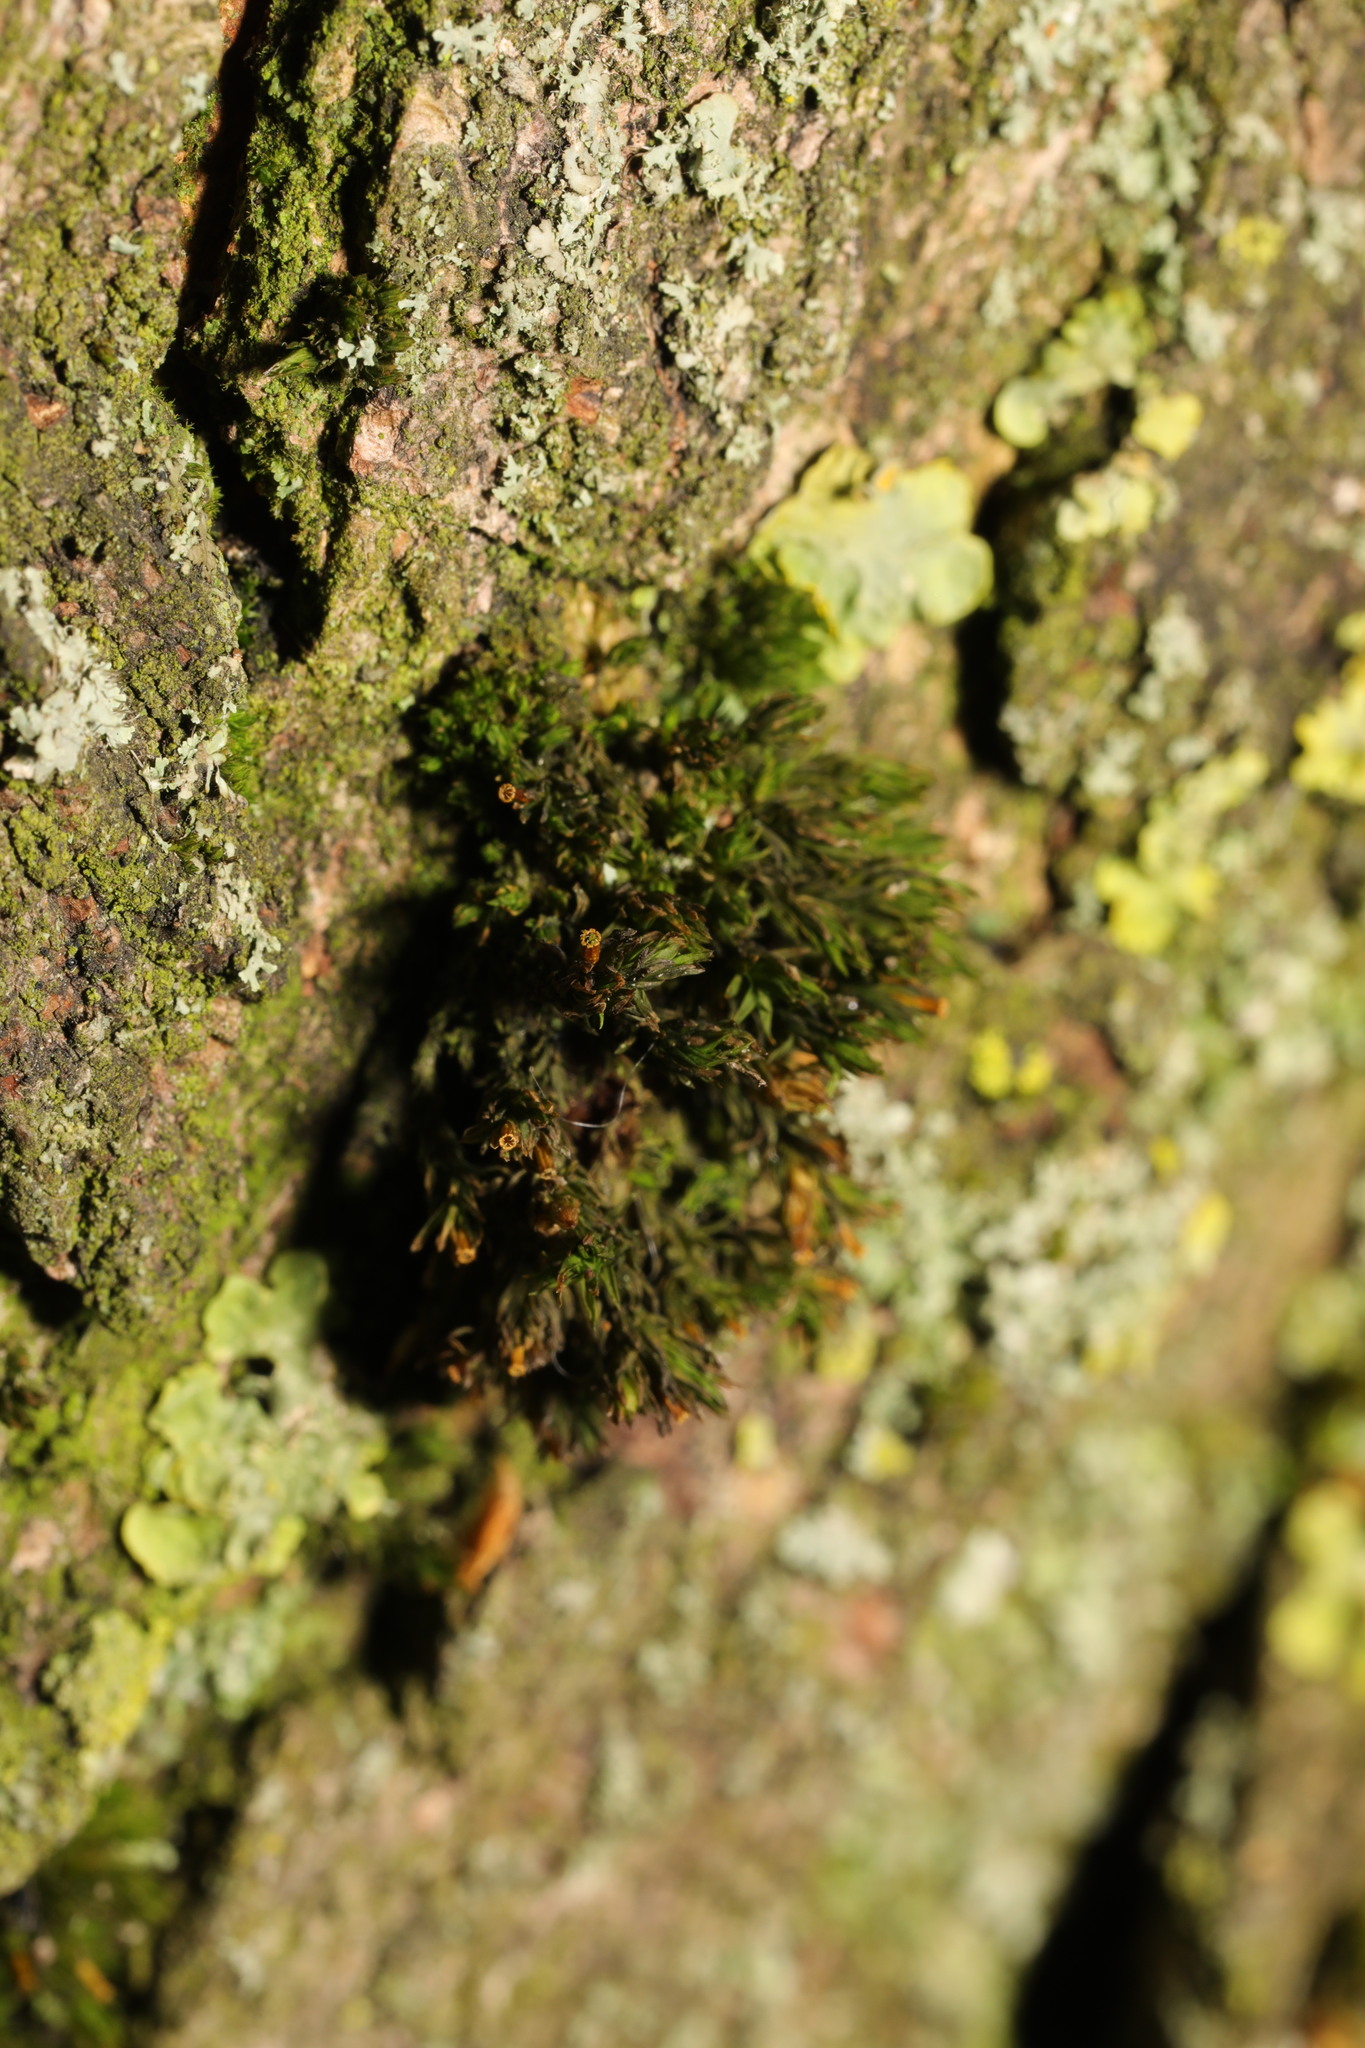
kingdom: Plantae
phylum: Bryophyta
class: Bryopsida
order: Orthotrichales
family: Orthotrichaceae
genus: Lewinskya
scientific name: Lewinskya affinis
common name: Wood bristle-moss
